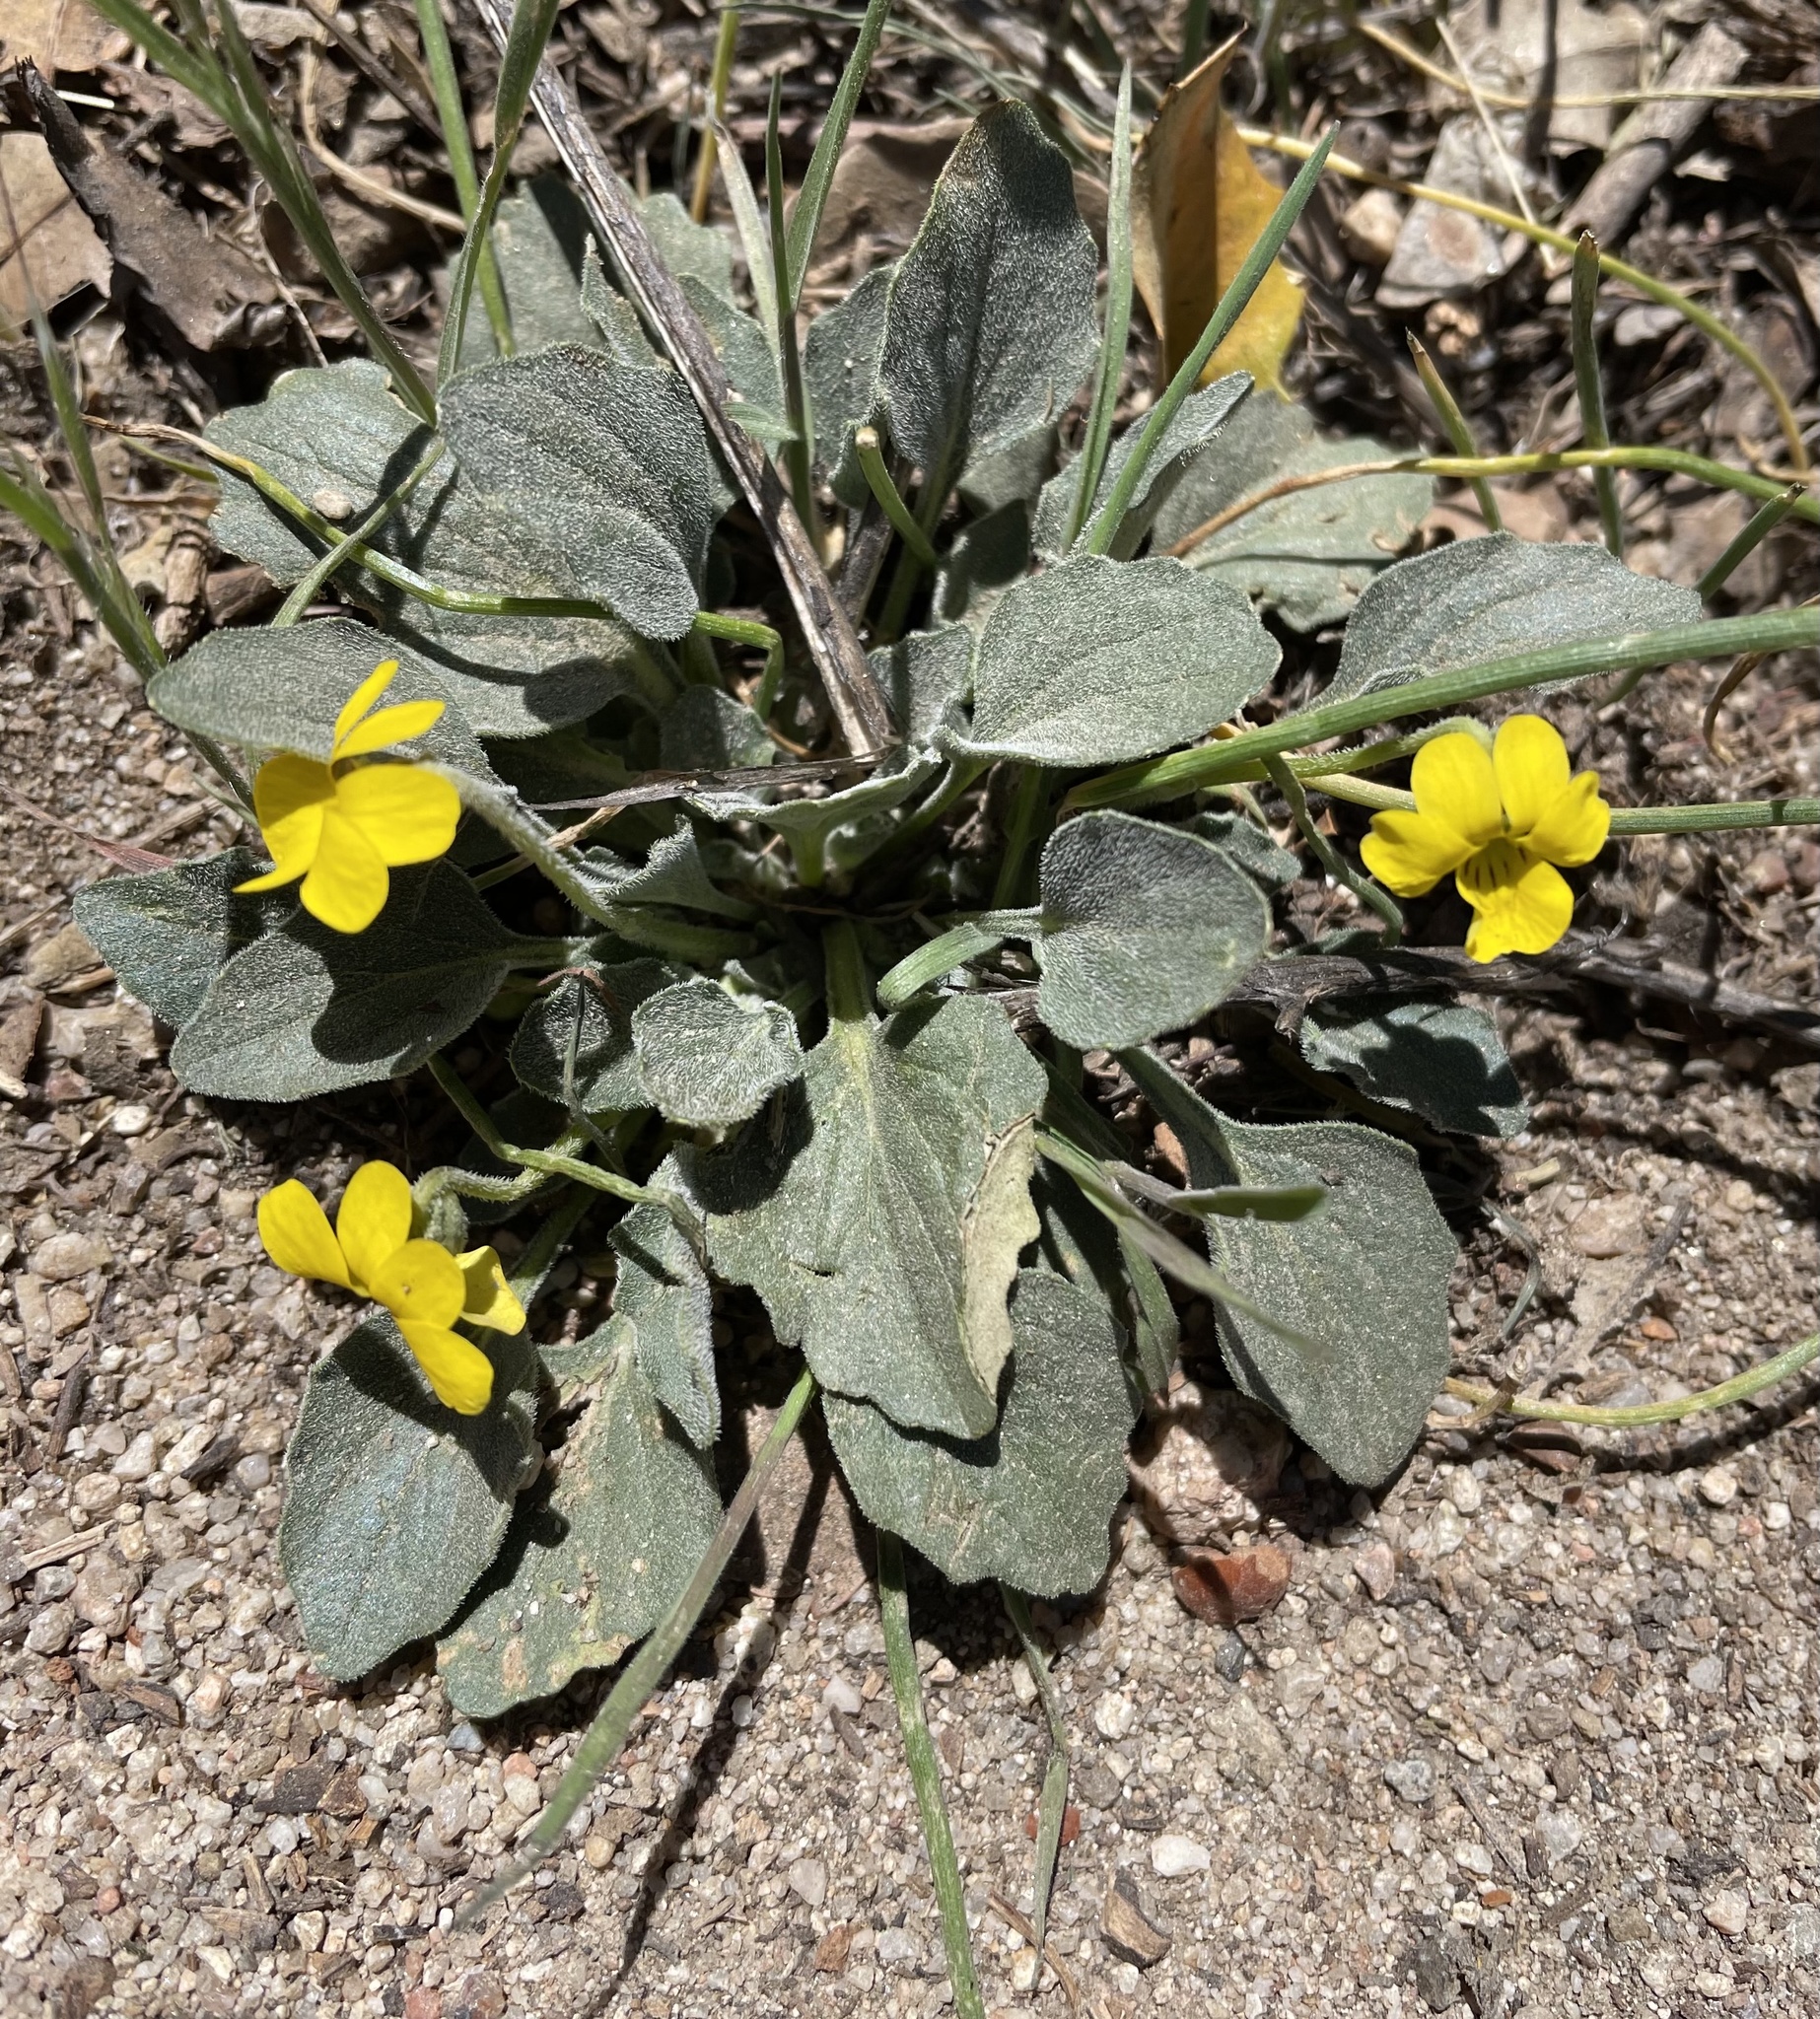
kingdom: Plantae
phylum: Tracheophyta
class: Magnoliopsida
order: Malpighiales
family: Violaceae
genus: Viola
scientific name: Viola purpurea
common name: Pine violet
